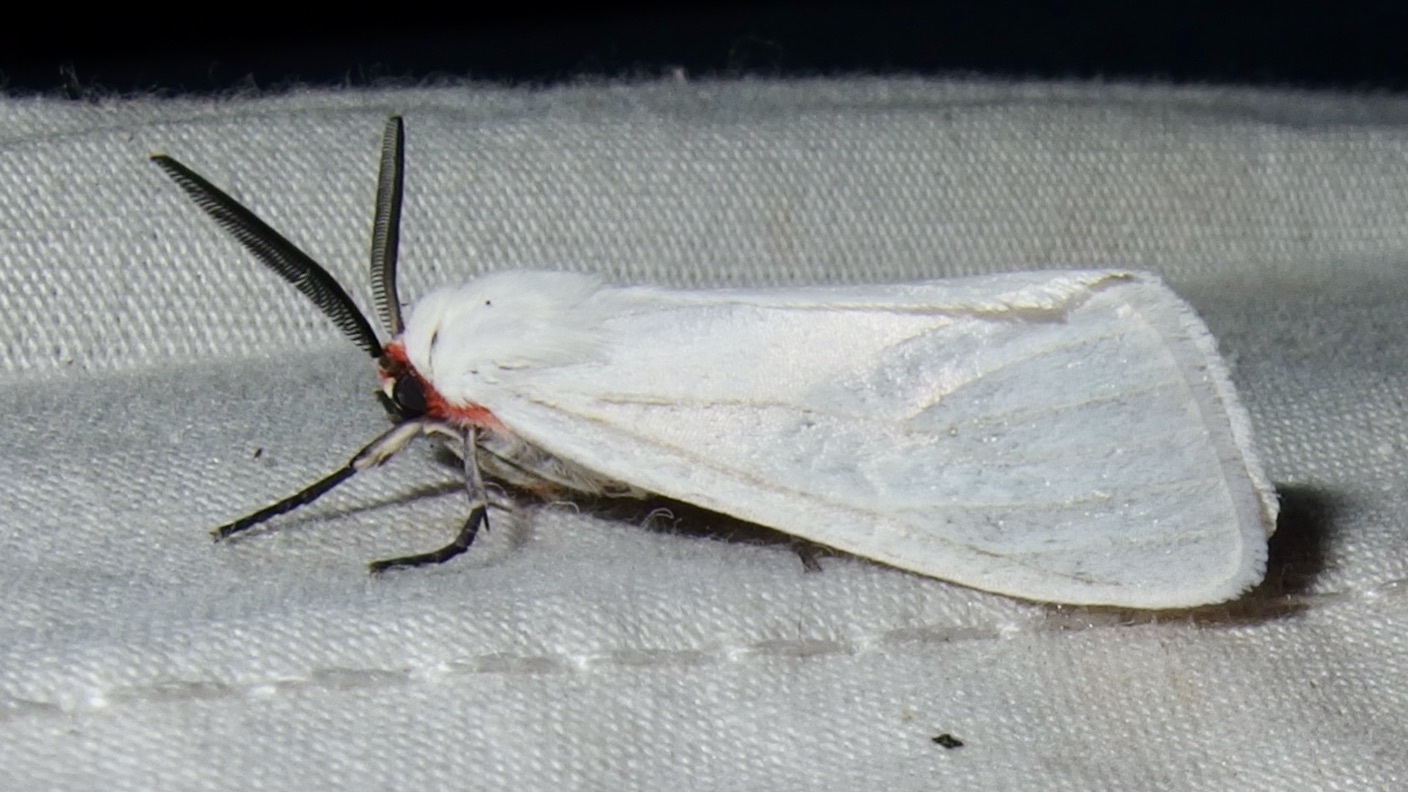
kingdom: Animalia
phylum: Arthropoda
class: Insecta
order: Lepidoptera
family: Erebidae
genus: Pygarctia
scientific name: Pygarctia roseicapitis
